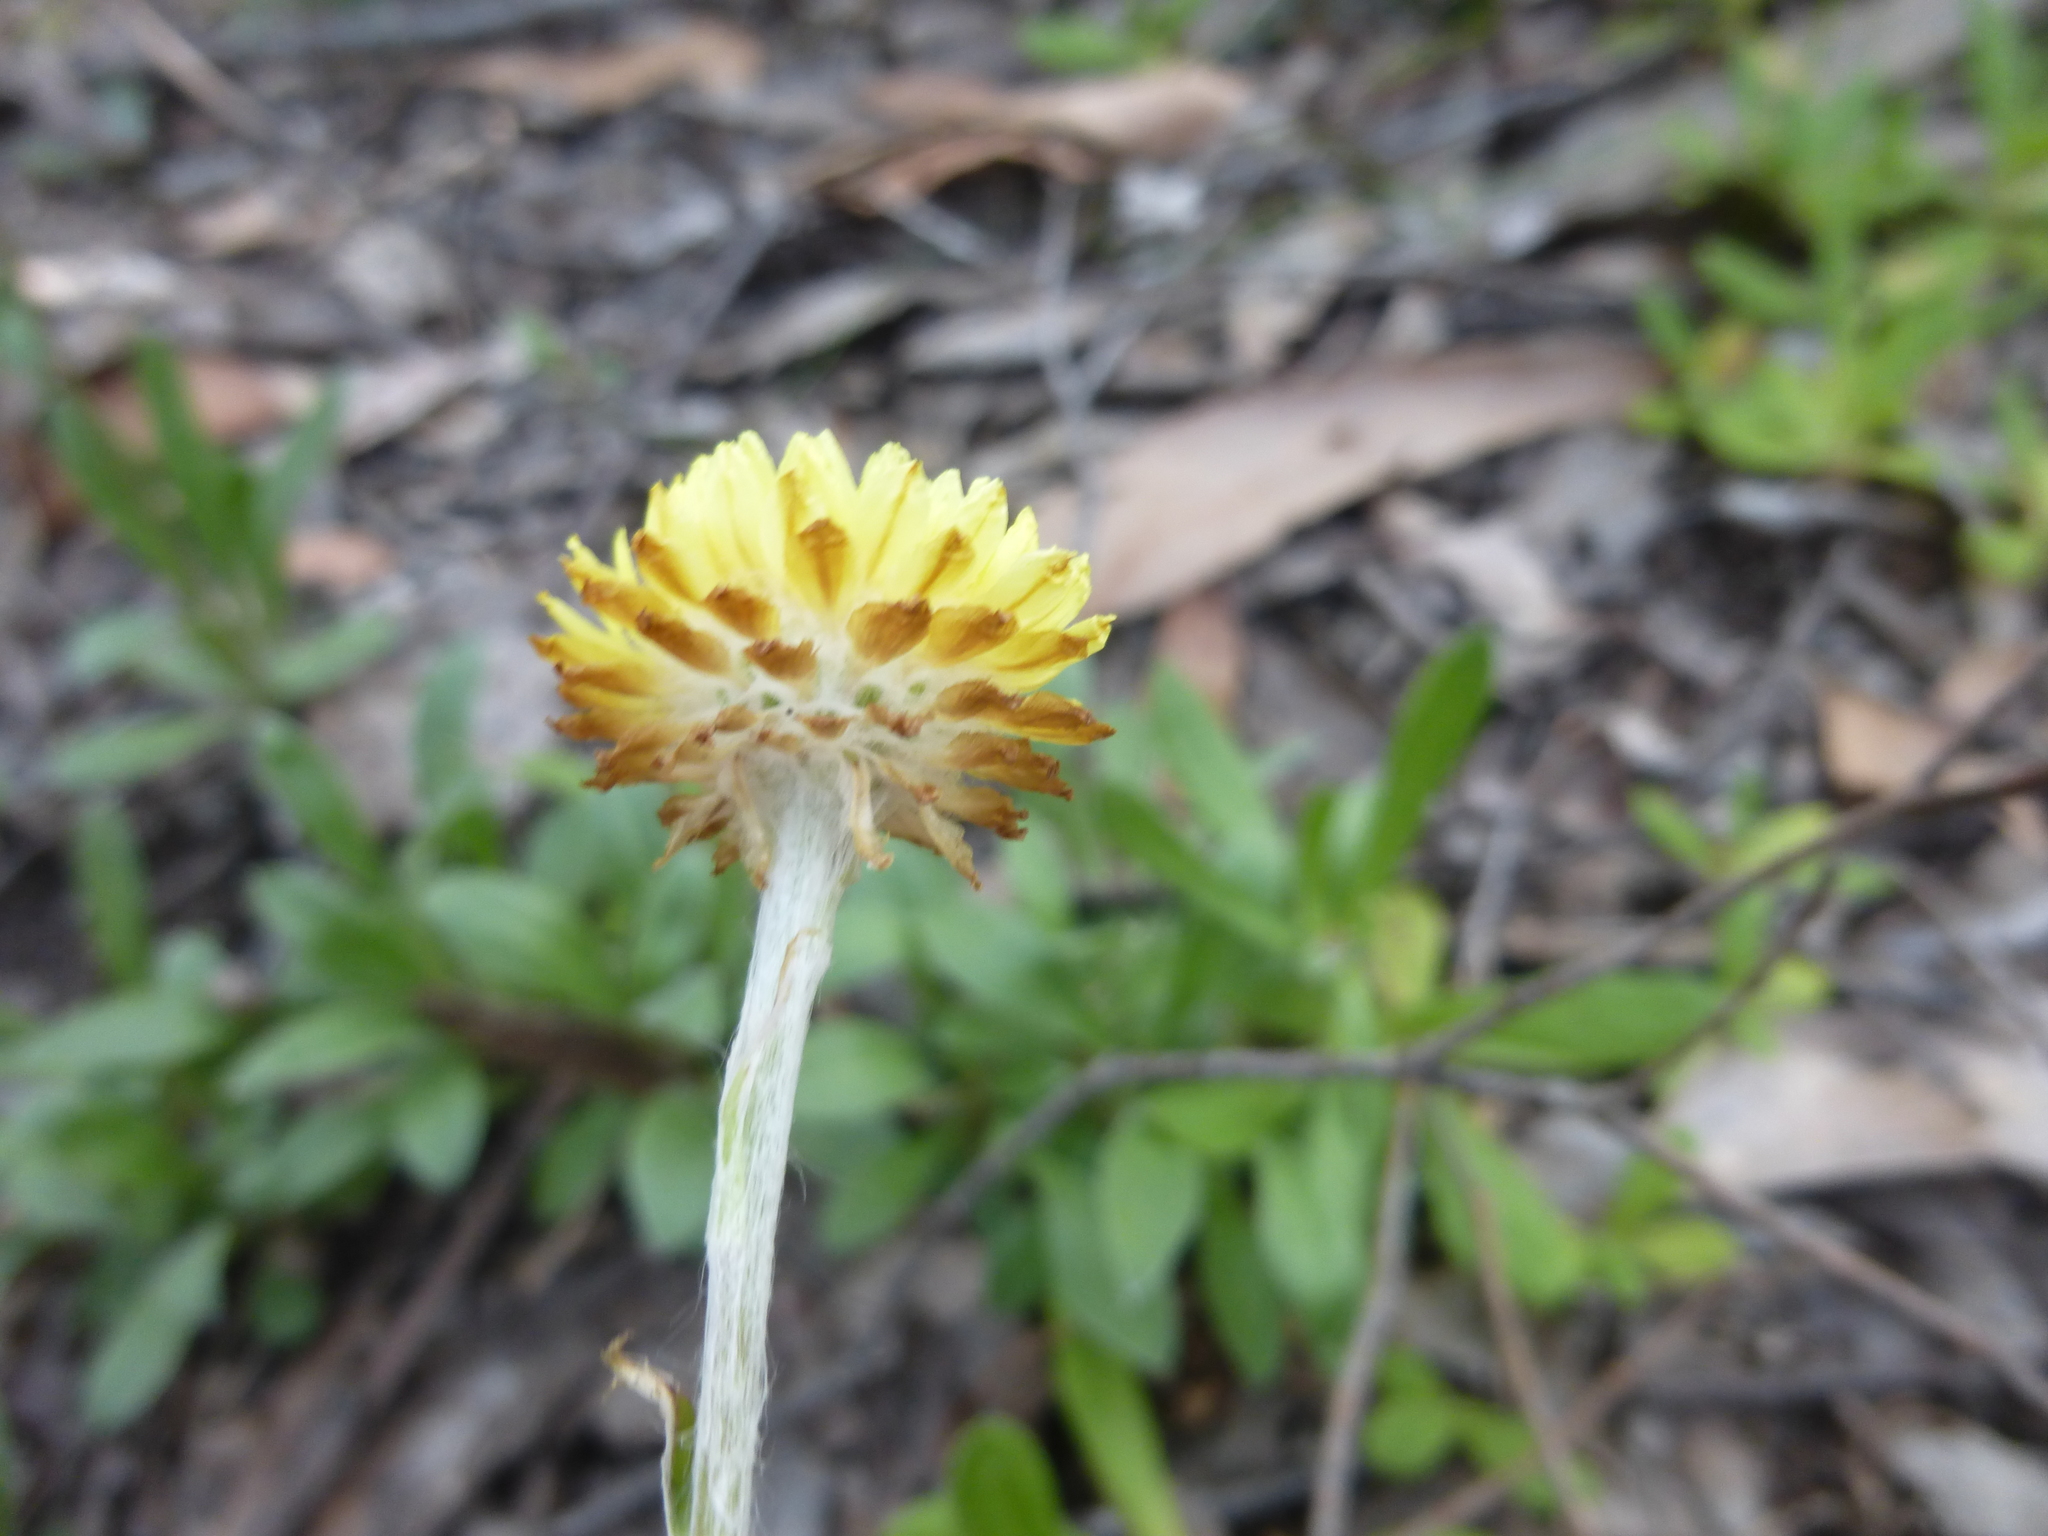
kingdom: Plantae
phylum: Tracheophyta
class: Magnoliopsida
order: Asterales
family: Asteraceae
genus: Coronidium
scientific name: Coronidium scorpioides
